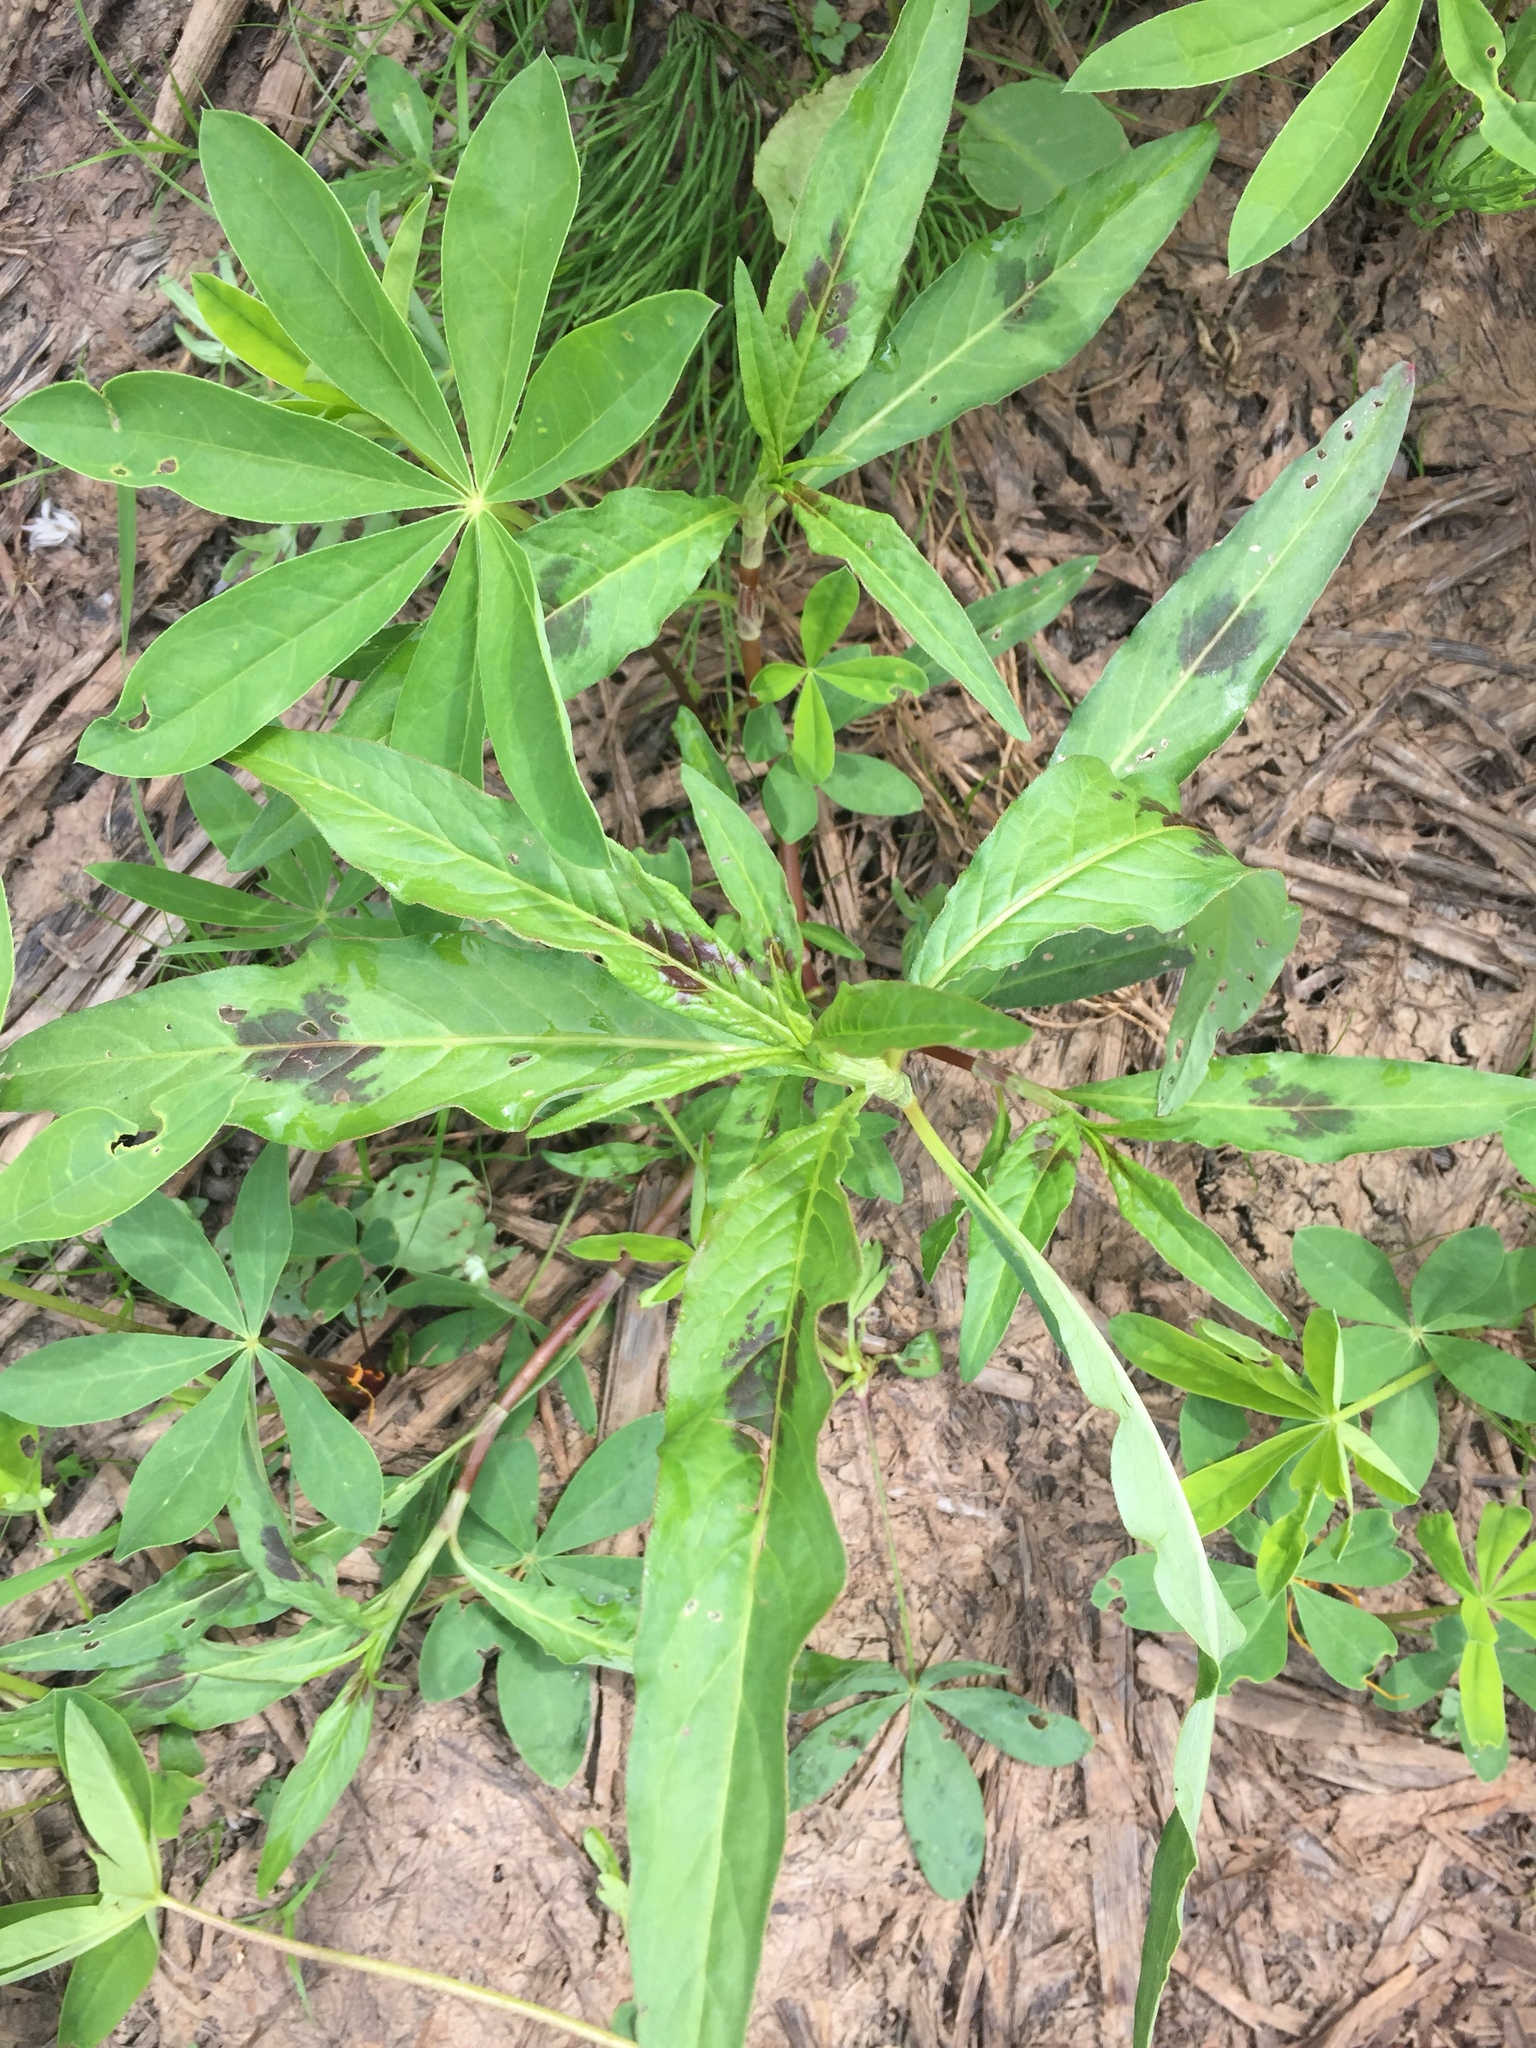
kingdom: Plantae
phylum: Tracheophyta
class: Magnoliopsida
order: Caryophyllales
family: Polygonaceae
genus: Persicaria
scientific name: Persicaria maculosa
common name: Redshank
